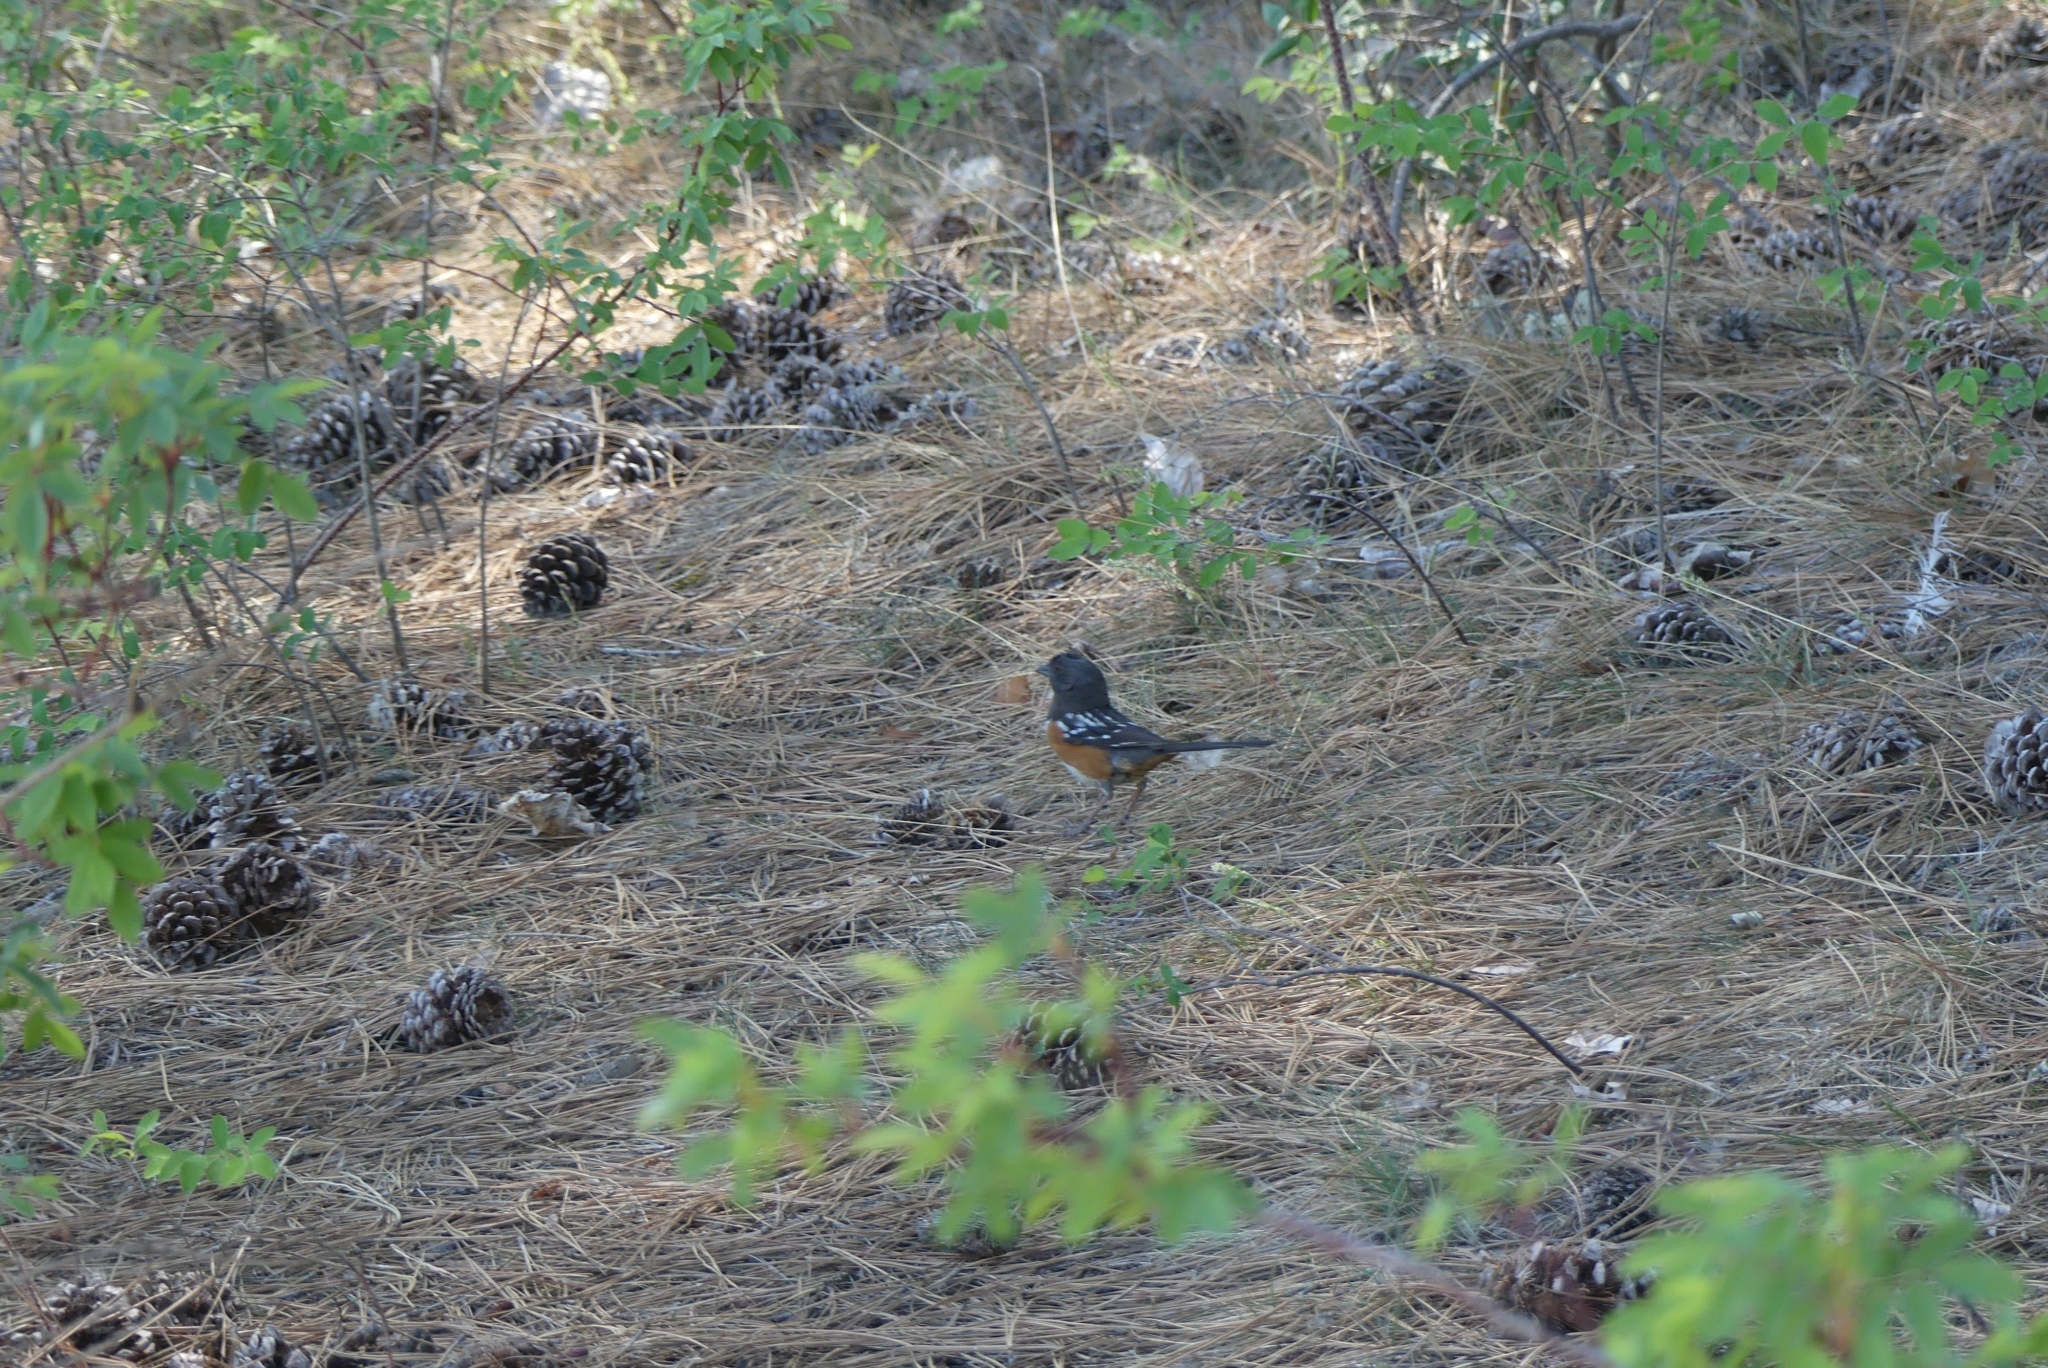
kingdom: Animalia
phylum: Chordata
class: Aves
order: Passeriformes
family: Passerellidae
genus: Pipilo
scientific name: Pipilo maculatus
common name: Spotted towhee
